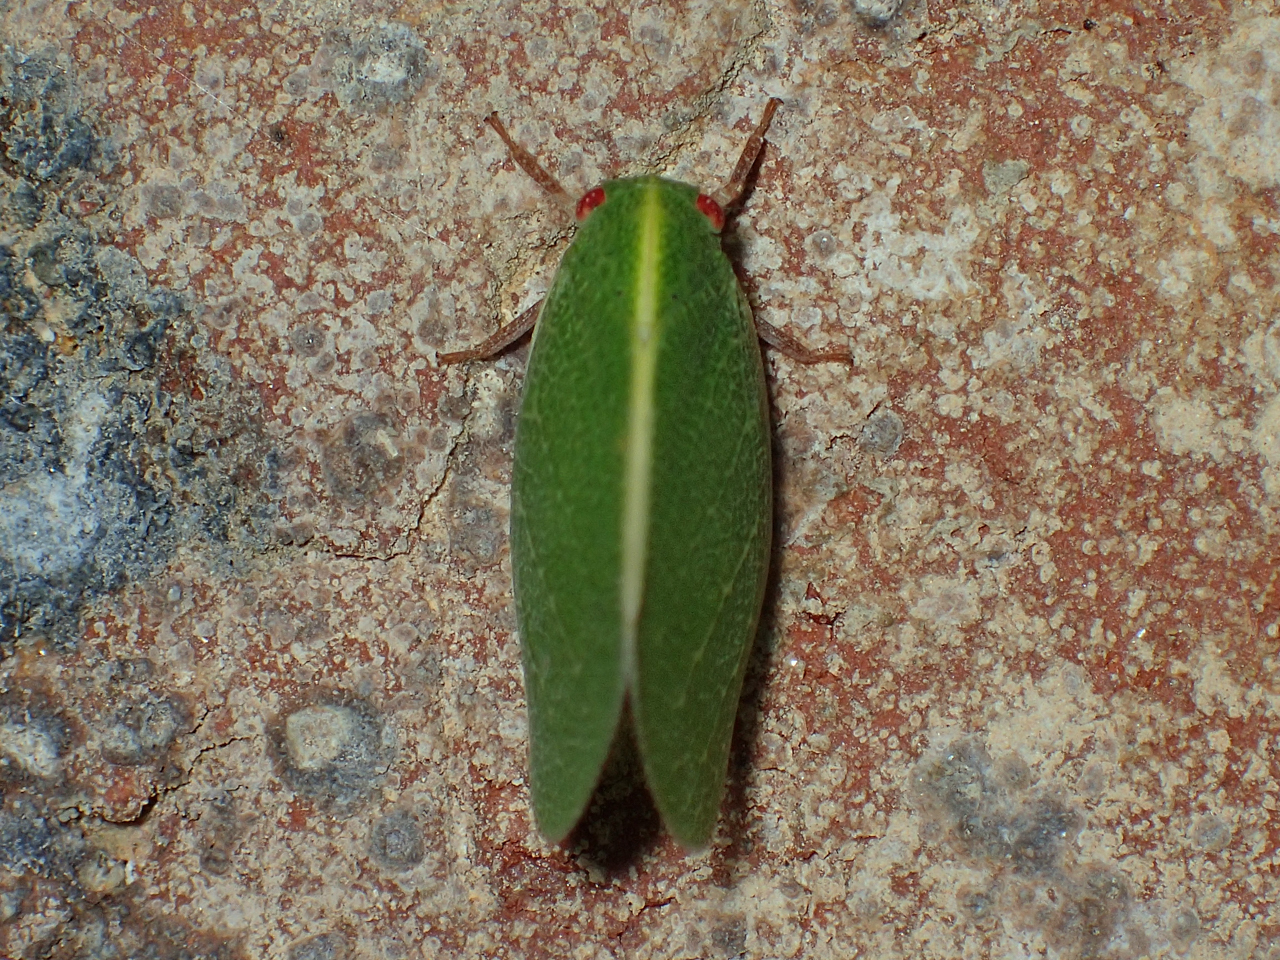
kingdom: Animalia
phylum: Arthropoda
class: Insecta
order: Hemiptera
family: Acanaloniidae
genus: Acanalonia
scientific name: Acanalonia servillei
